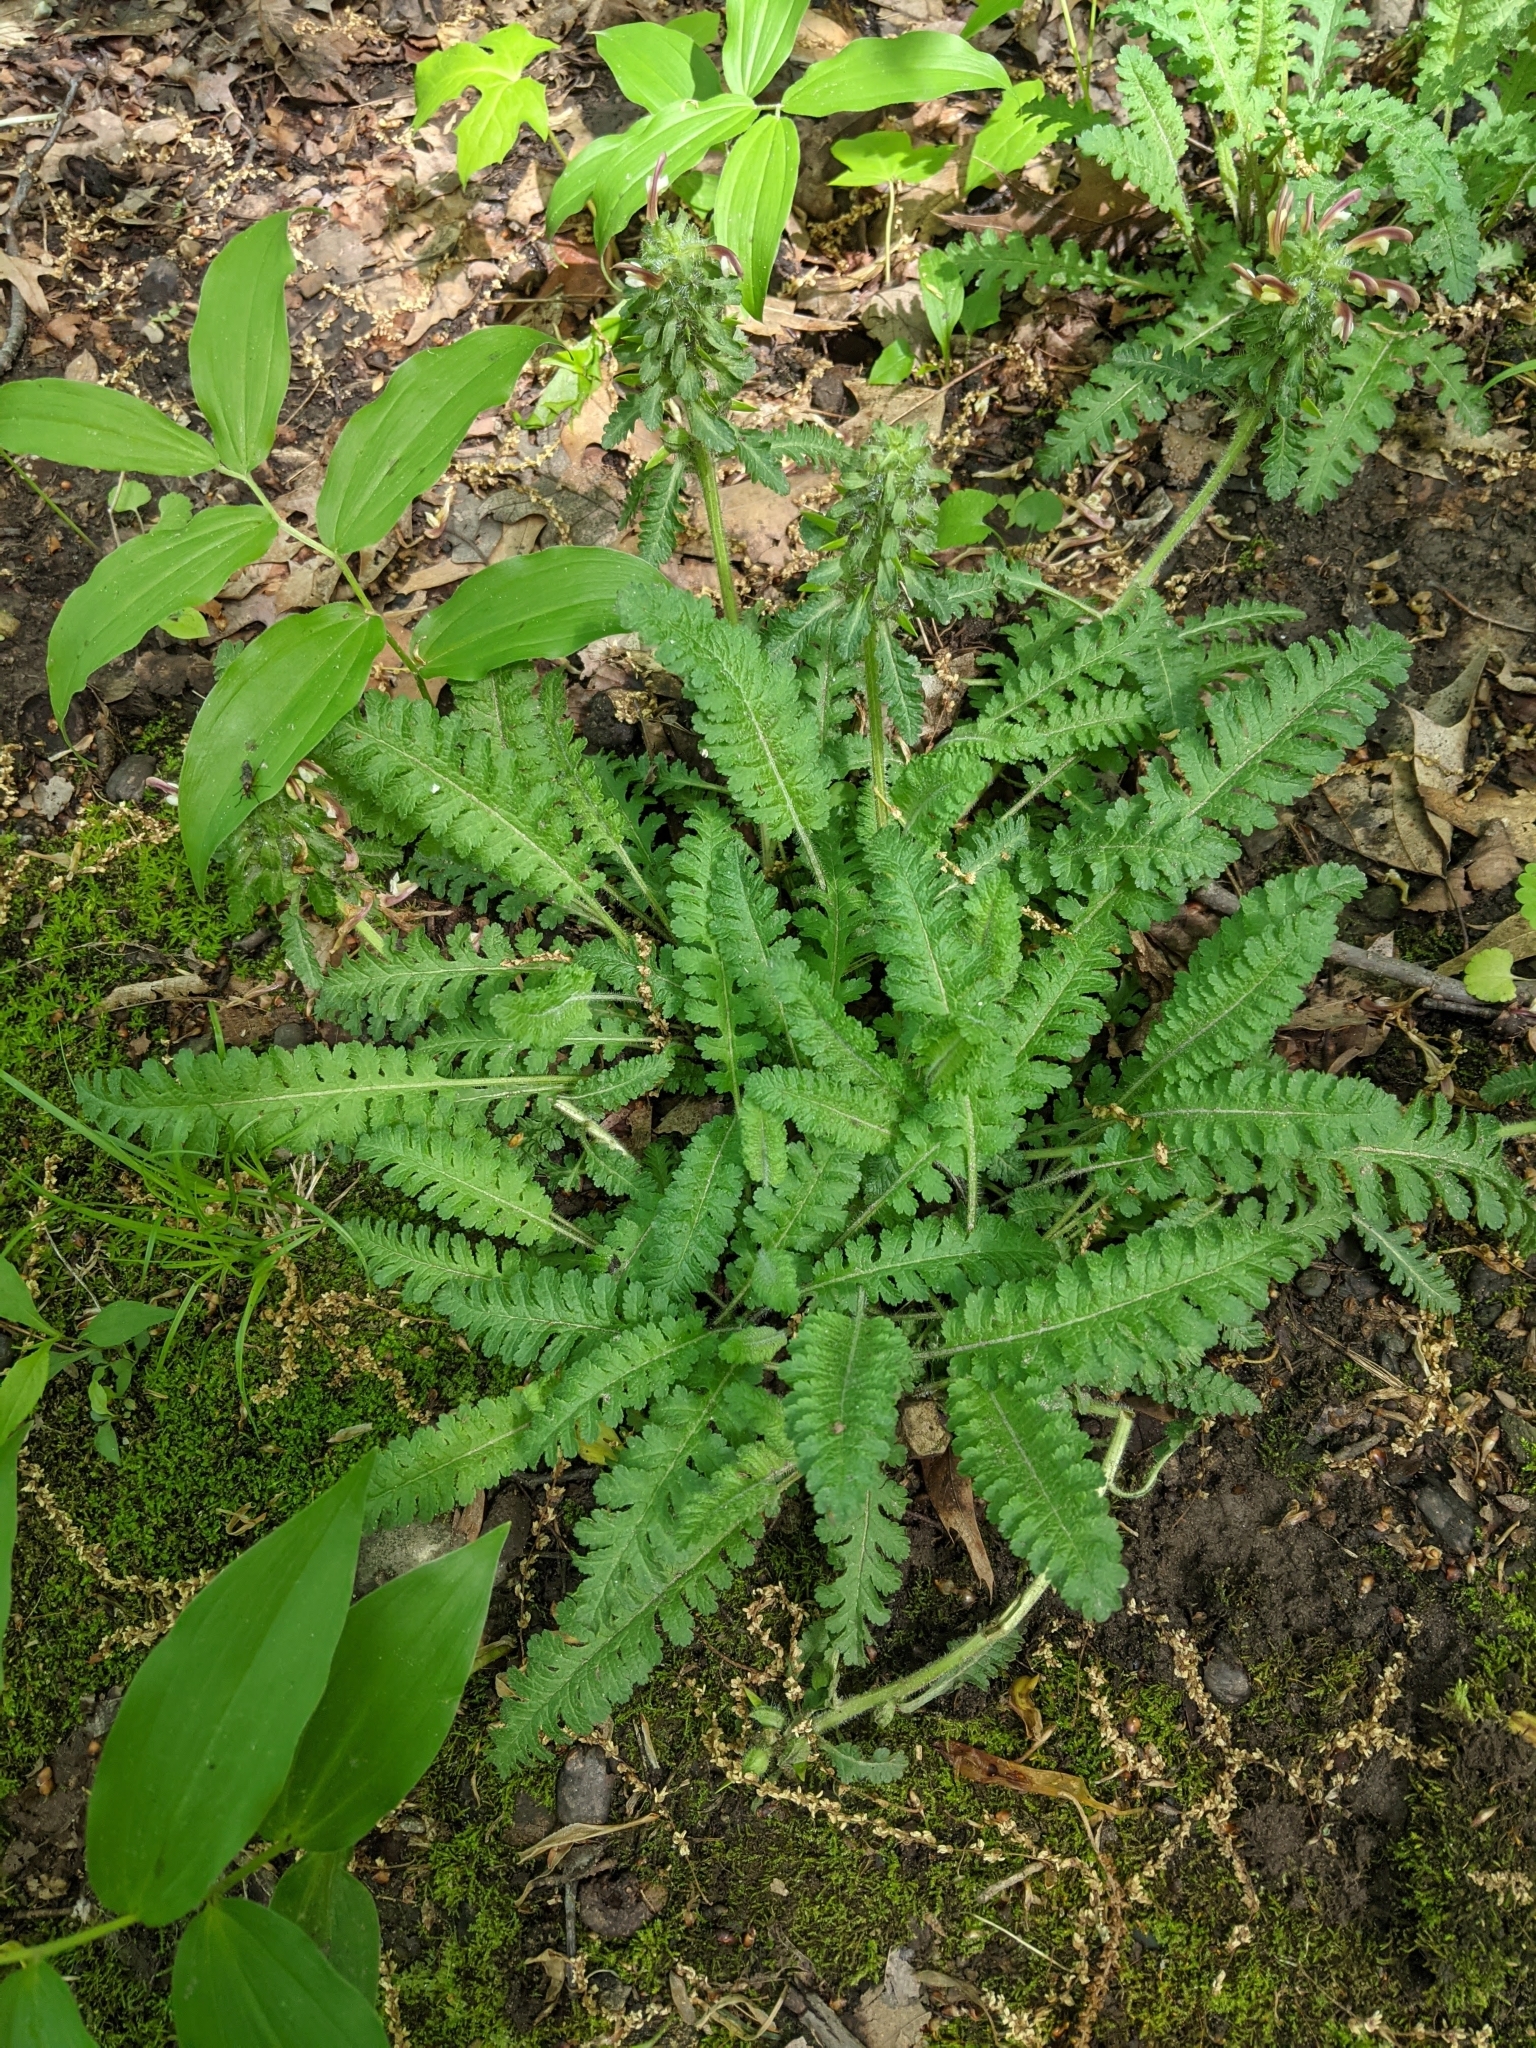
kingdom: Plantae
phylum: Tracheophyta
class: Magnoliopsida
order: Lamiales
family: Orobanchaceae
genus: Pedicularis
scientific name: Pedicularis canadensis
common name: Early lousewort
